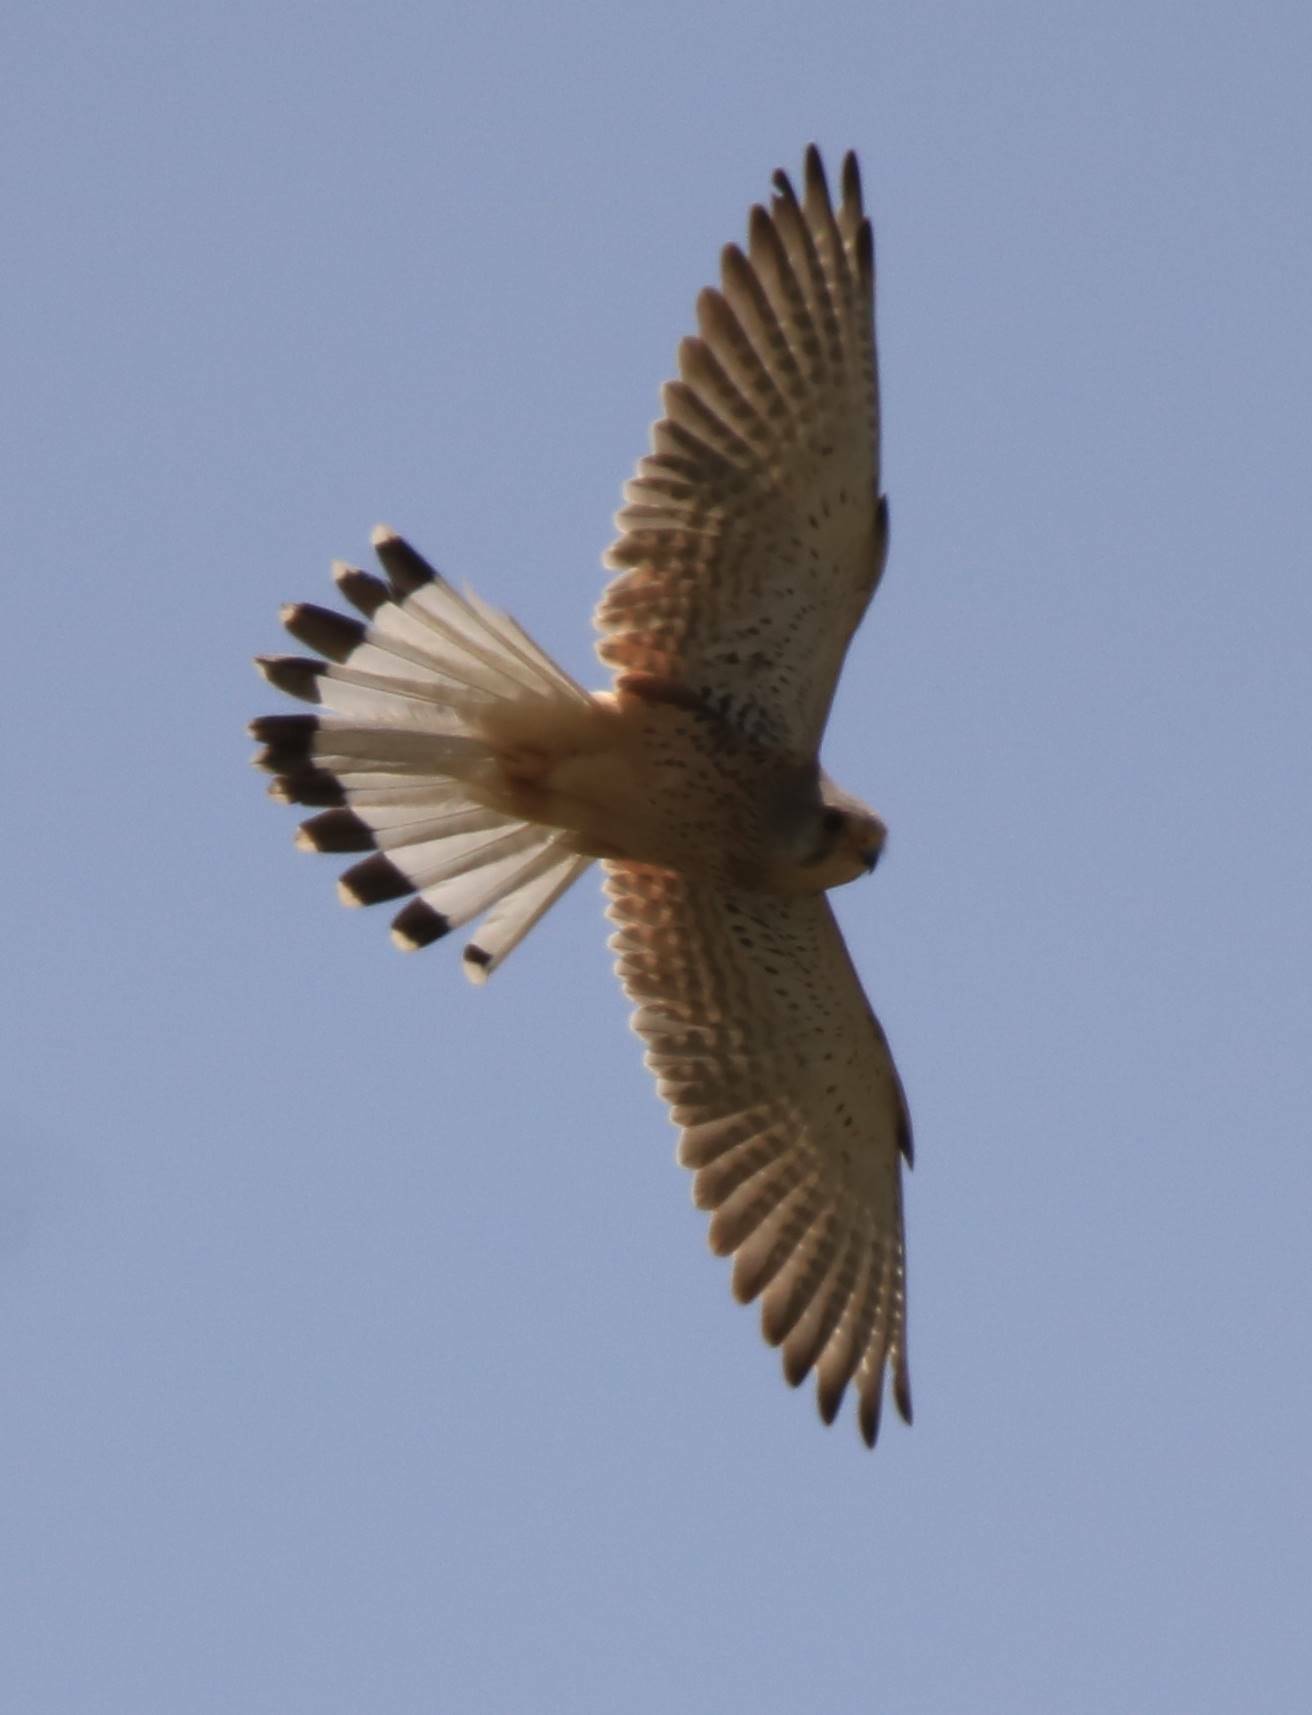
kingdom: Animalia
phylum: Chordata
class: Aves
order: Falconiformes
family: Falconidae
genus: Falco
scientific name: Falco tinnunculus
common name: Common kestrel
